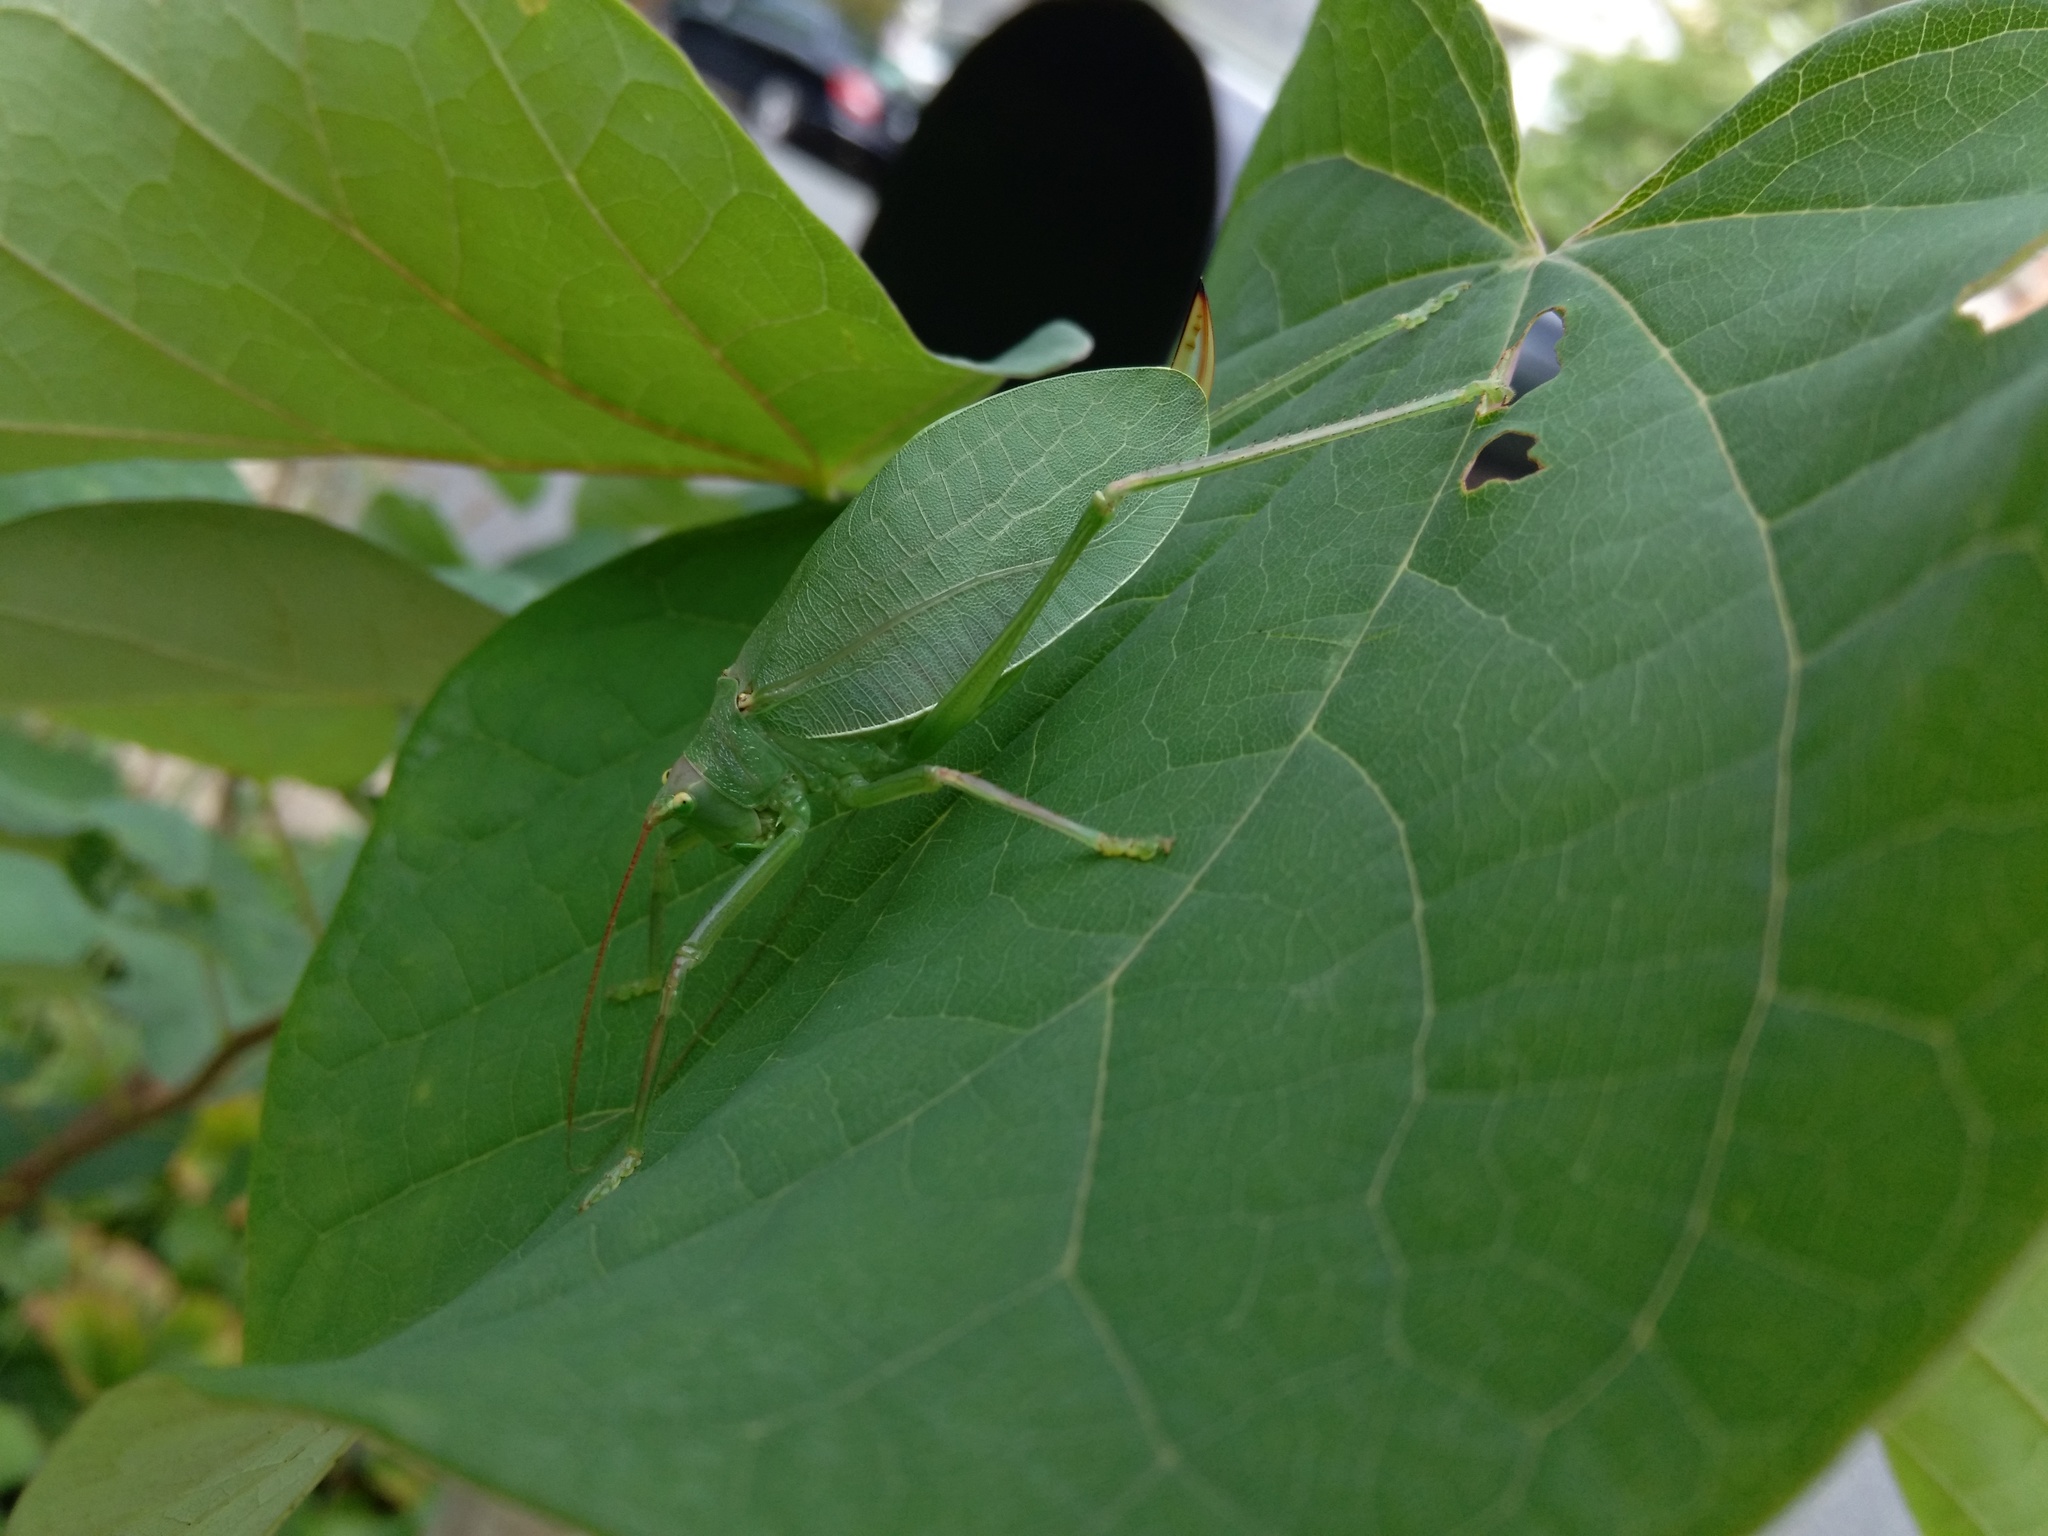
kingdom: Animalia
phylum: Arthropoda
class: Insecta
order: Orthoptera
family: Tettigoniidae
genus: Pterophylla
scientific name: Pterophylla camellifolia
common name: Common true katydid
